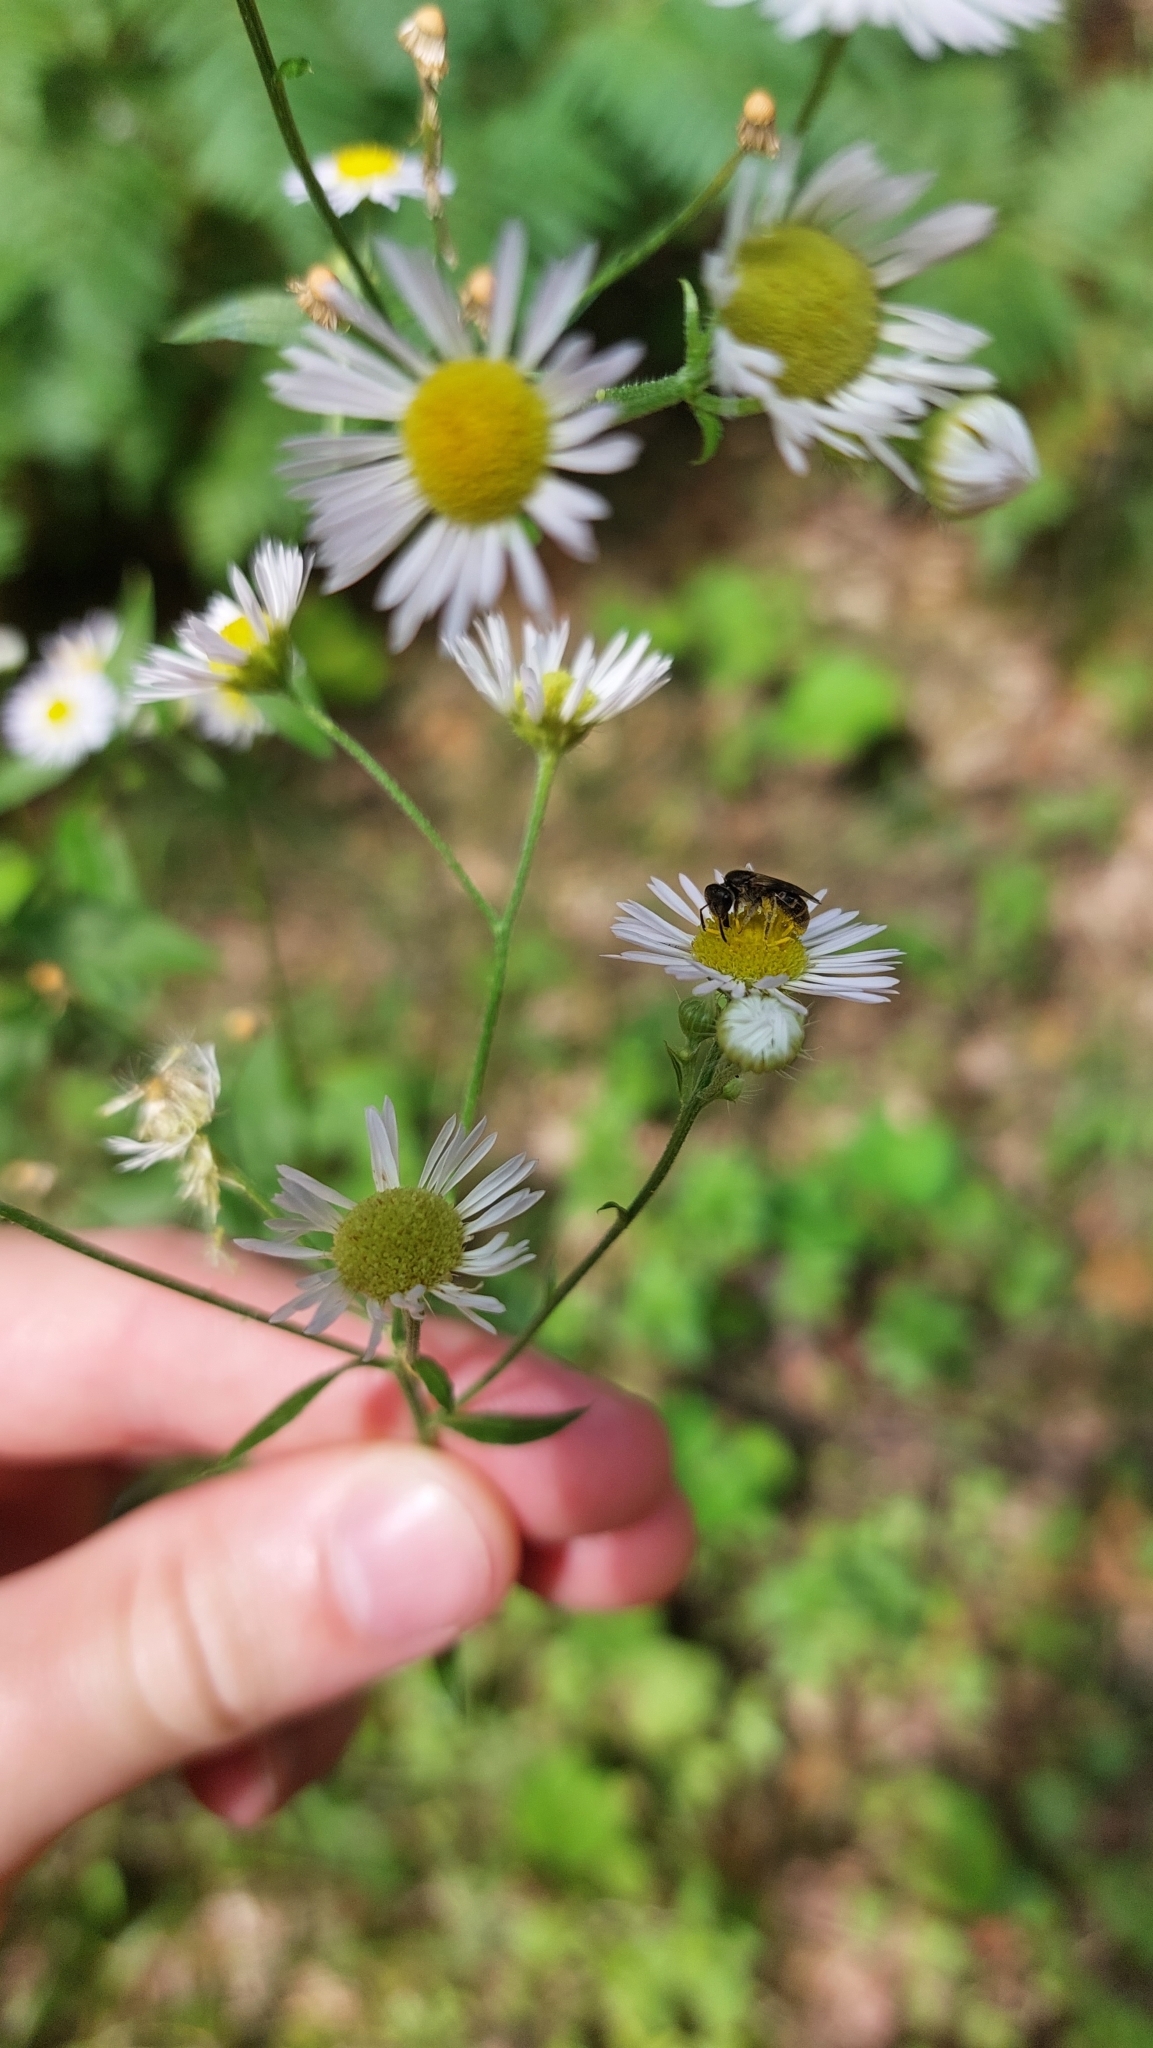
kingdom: Plantae
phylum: Tracheophyta
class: Magnoliopsida
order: Asterales
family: Asteraceae
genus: Erigeron
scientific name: Erigeron annuus
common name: Tall fleabane
